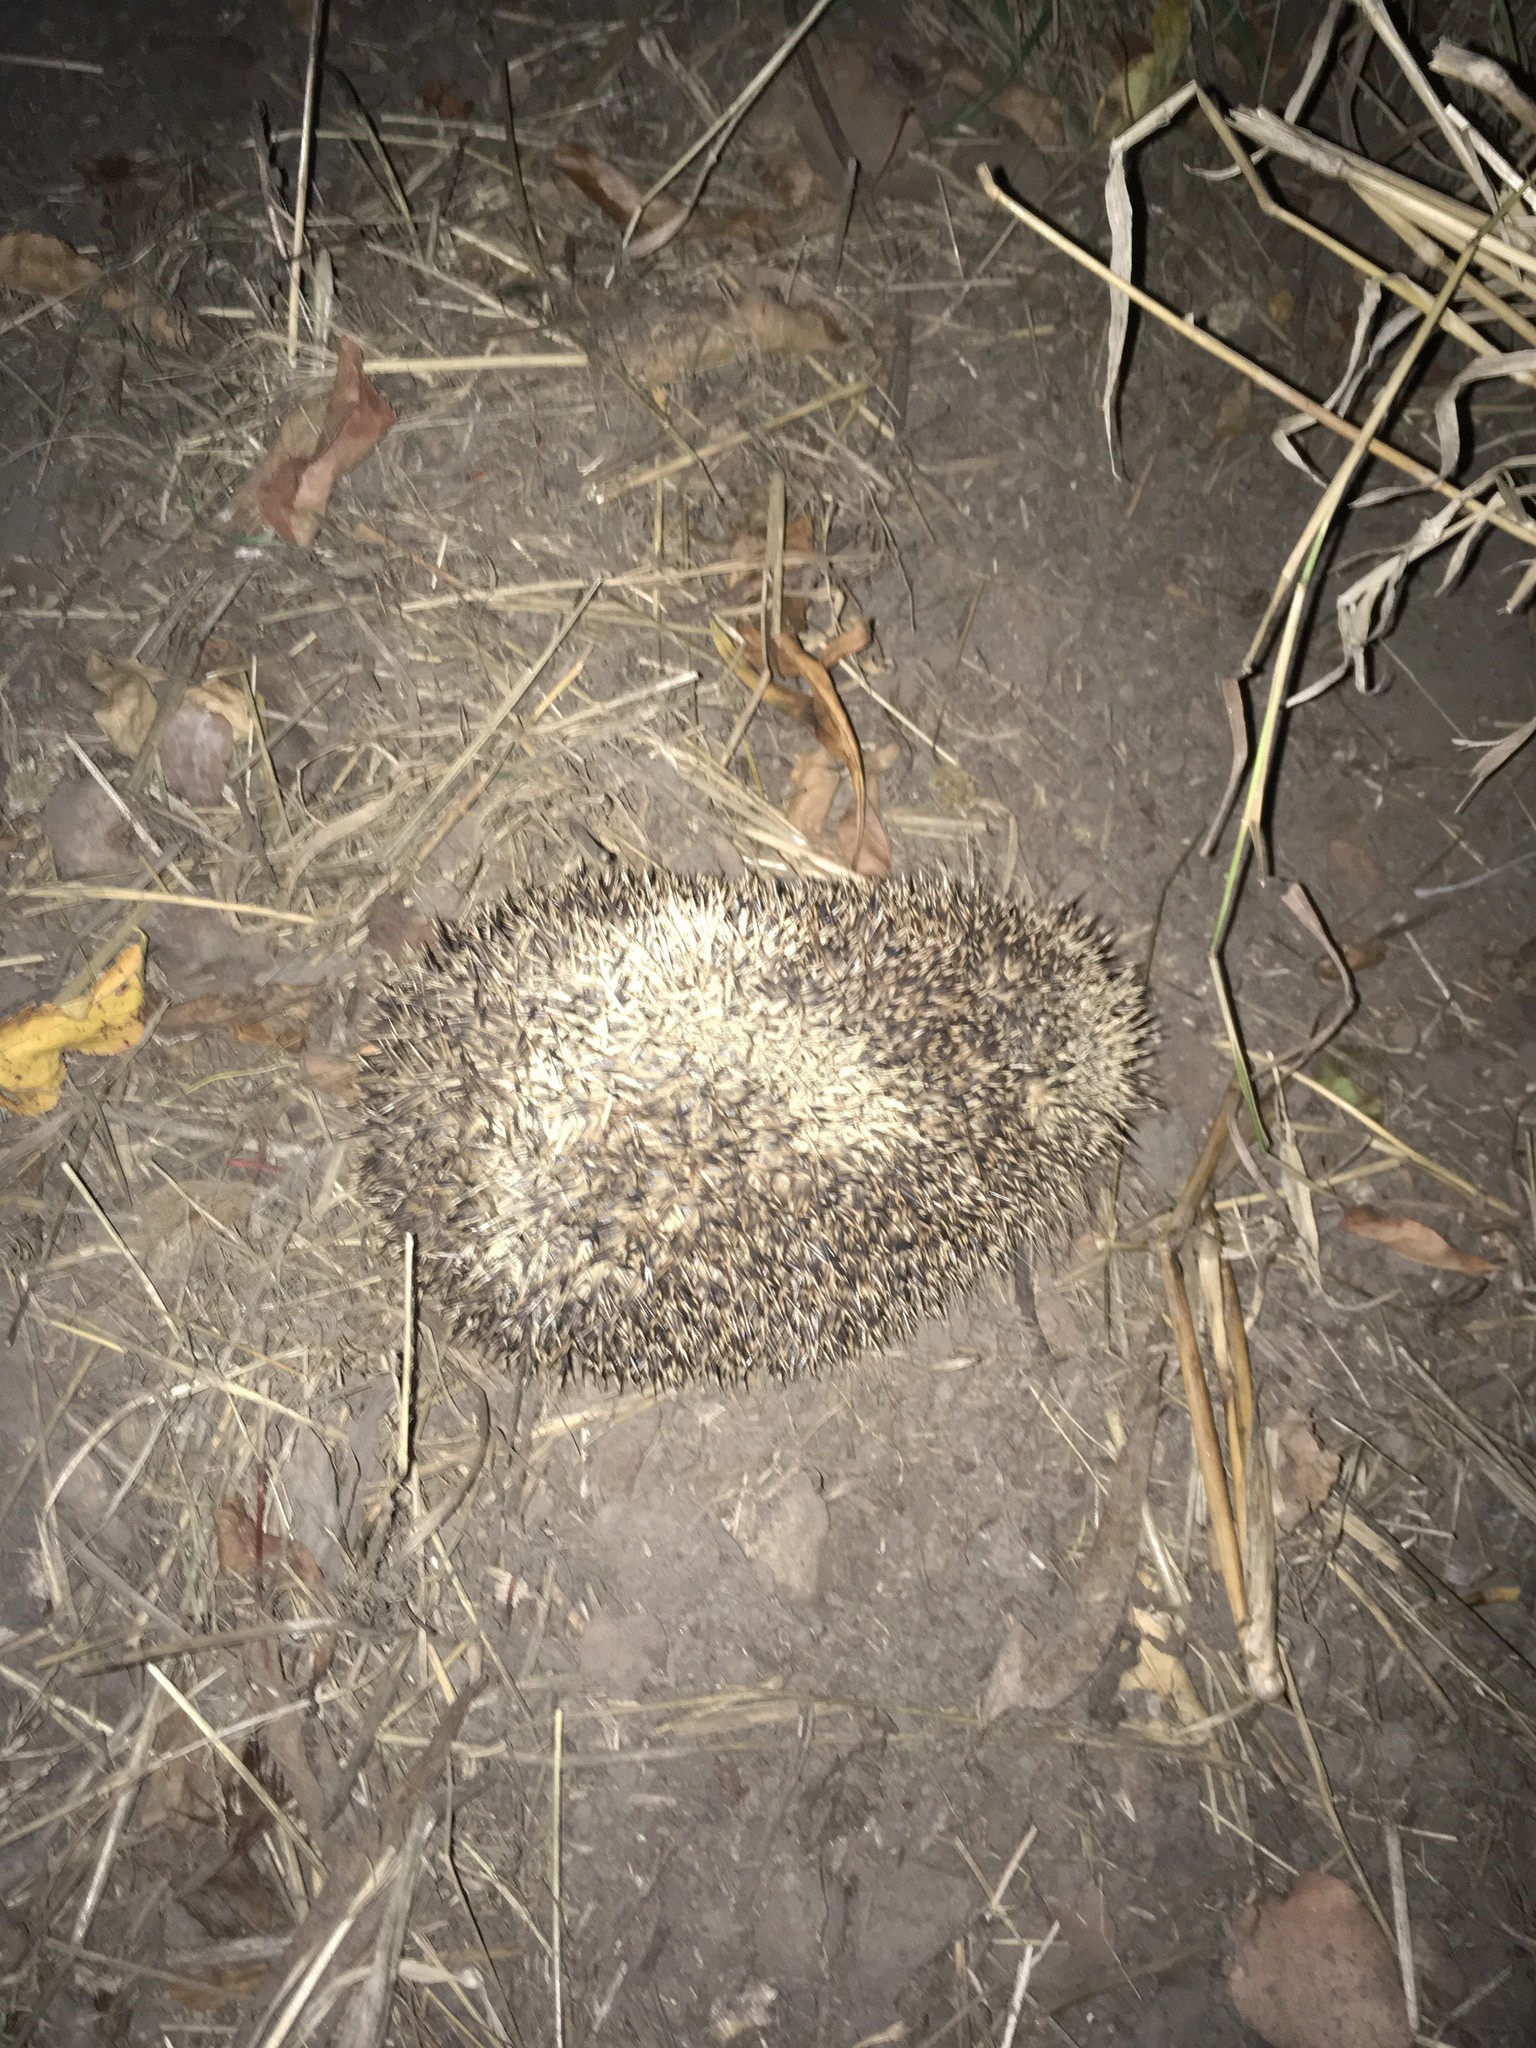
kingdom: Animalia
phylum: Chordata
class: Mammalia
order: Erinaceomorpha
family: Erinaceidae
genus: Erinaceus
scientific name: Erinaceus europaeus
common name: West european hedgehog
